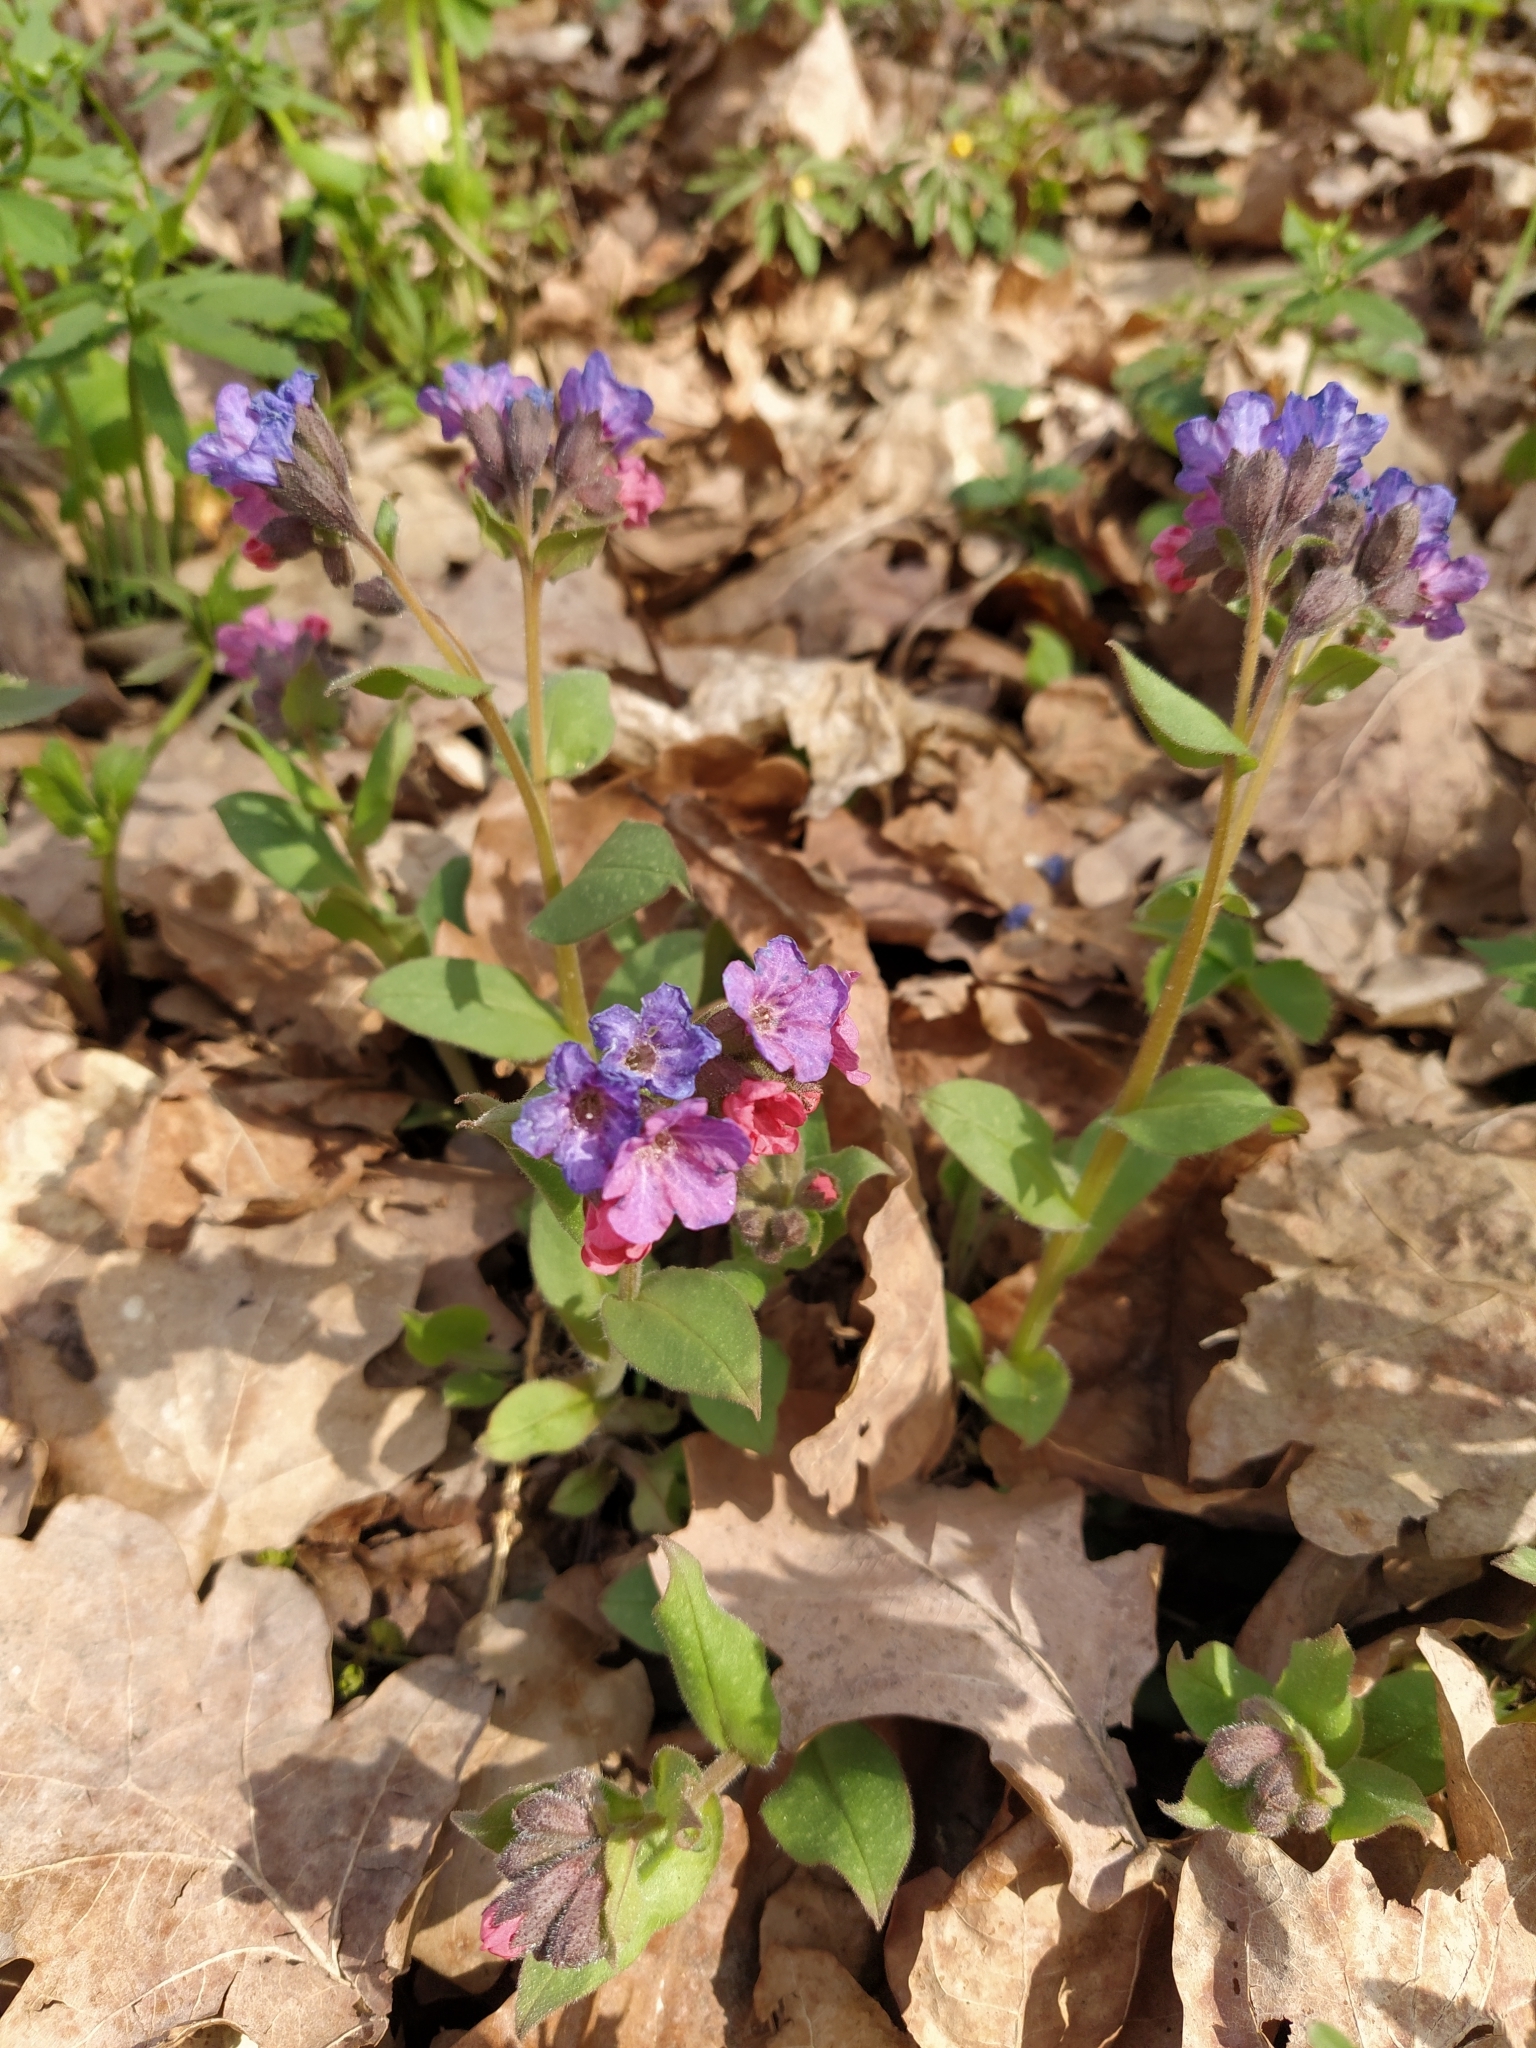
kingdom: Plantae
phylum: Tracheophyta
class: Magnoliopsida
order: Boraginales
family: Boraginaceae
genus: Pulmonaria
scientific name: Pulmonaria obscura
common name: Suffolk lungwort
